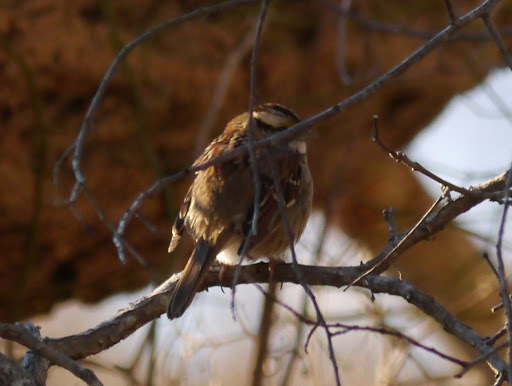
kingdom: Animalia
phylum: Chordata
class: Aves
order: Passeriformes
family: Passerellidae
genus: Zonotrichia
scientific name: Zonotrichia albicollis
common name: White-throated sparrow
